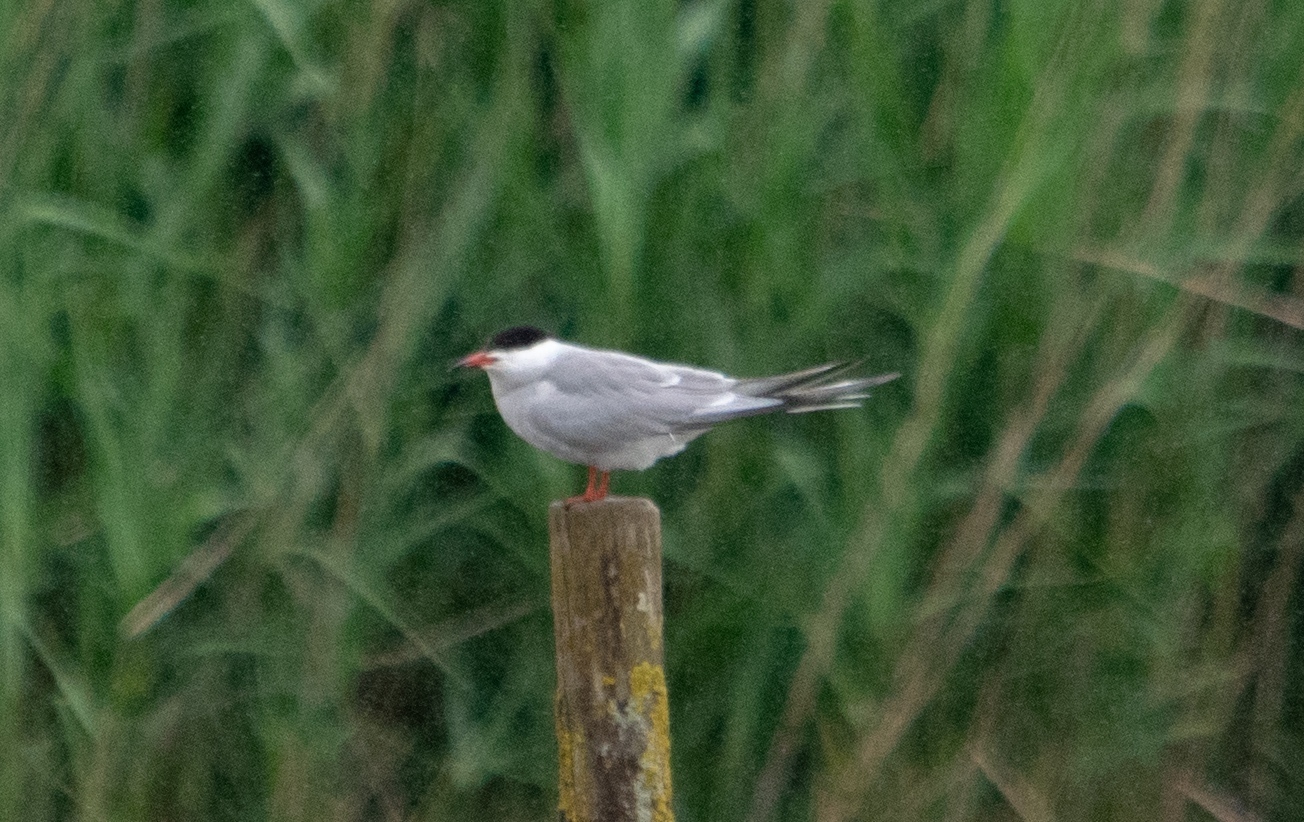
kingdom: Animalia
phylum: Chordata
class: Aves
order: Charadriiformes
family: Laridae
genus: Sterna
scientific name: Sterna hirundo
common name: Common tern
